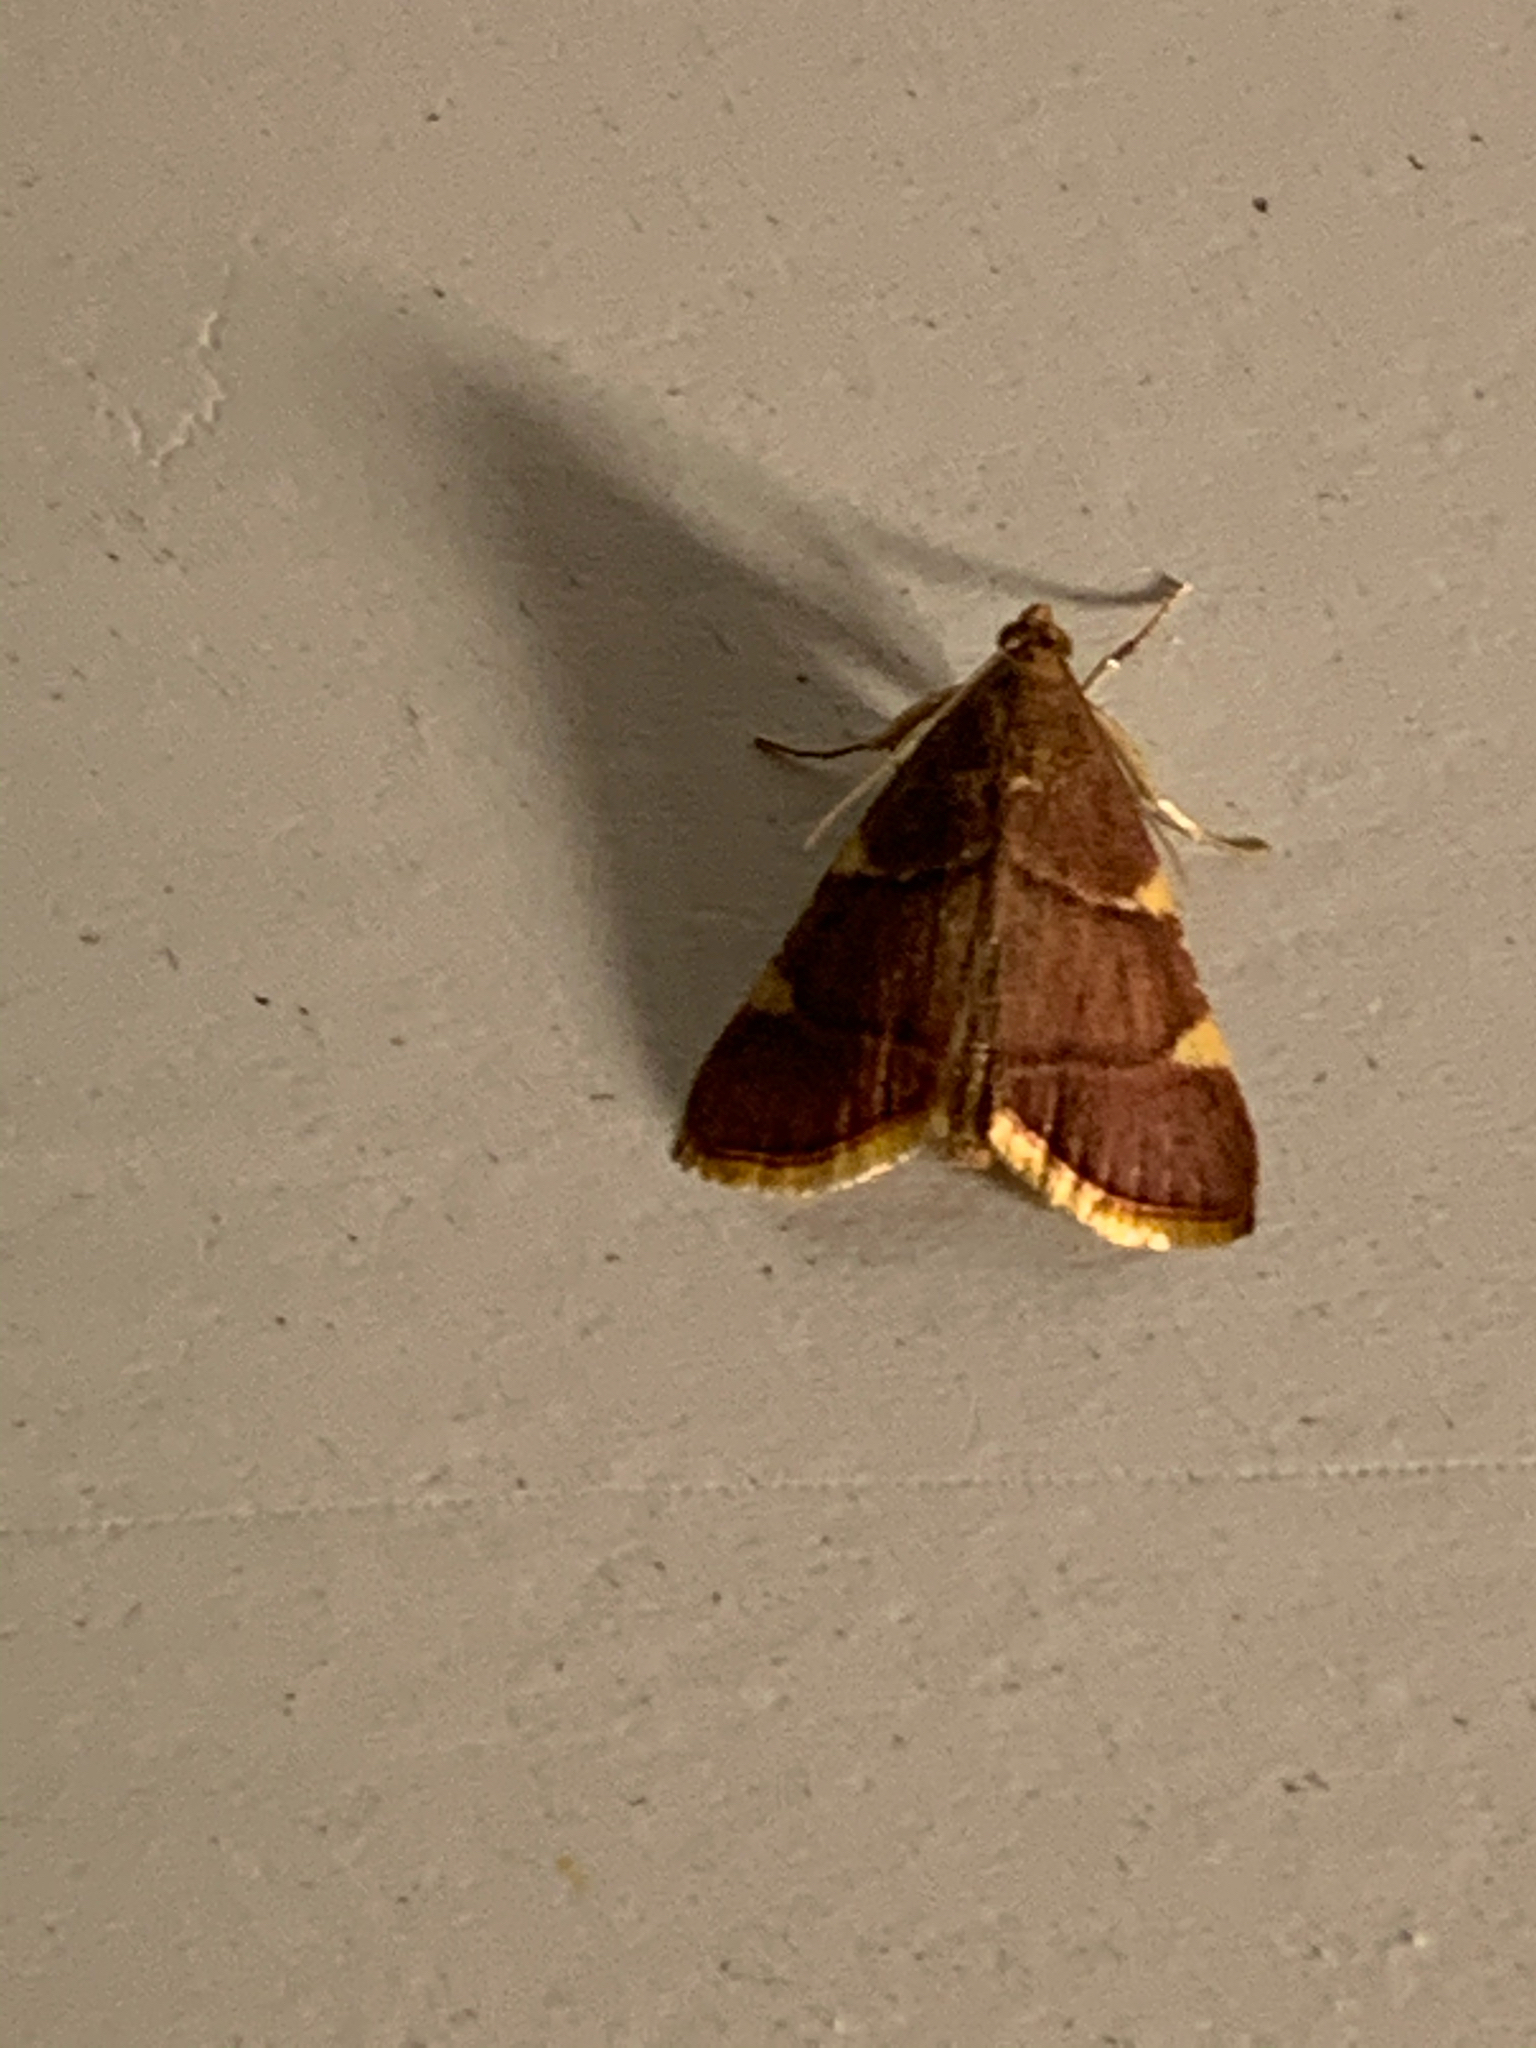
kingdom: Animalia
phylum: Arthropoda
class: Insecta
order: Lepidoptera
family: Pyralidae
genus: Hypsopygia
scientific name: Hypsopygia olinalis
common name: Yellow-fringed dolichomia moth
